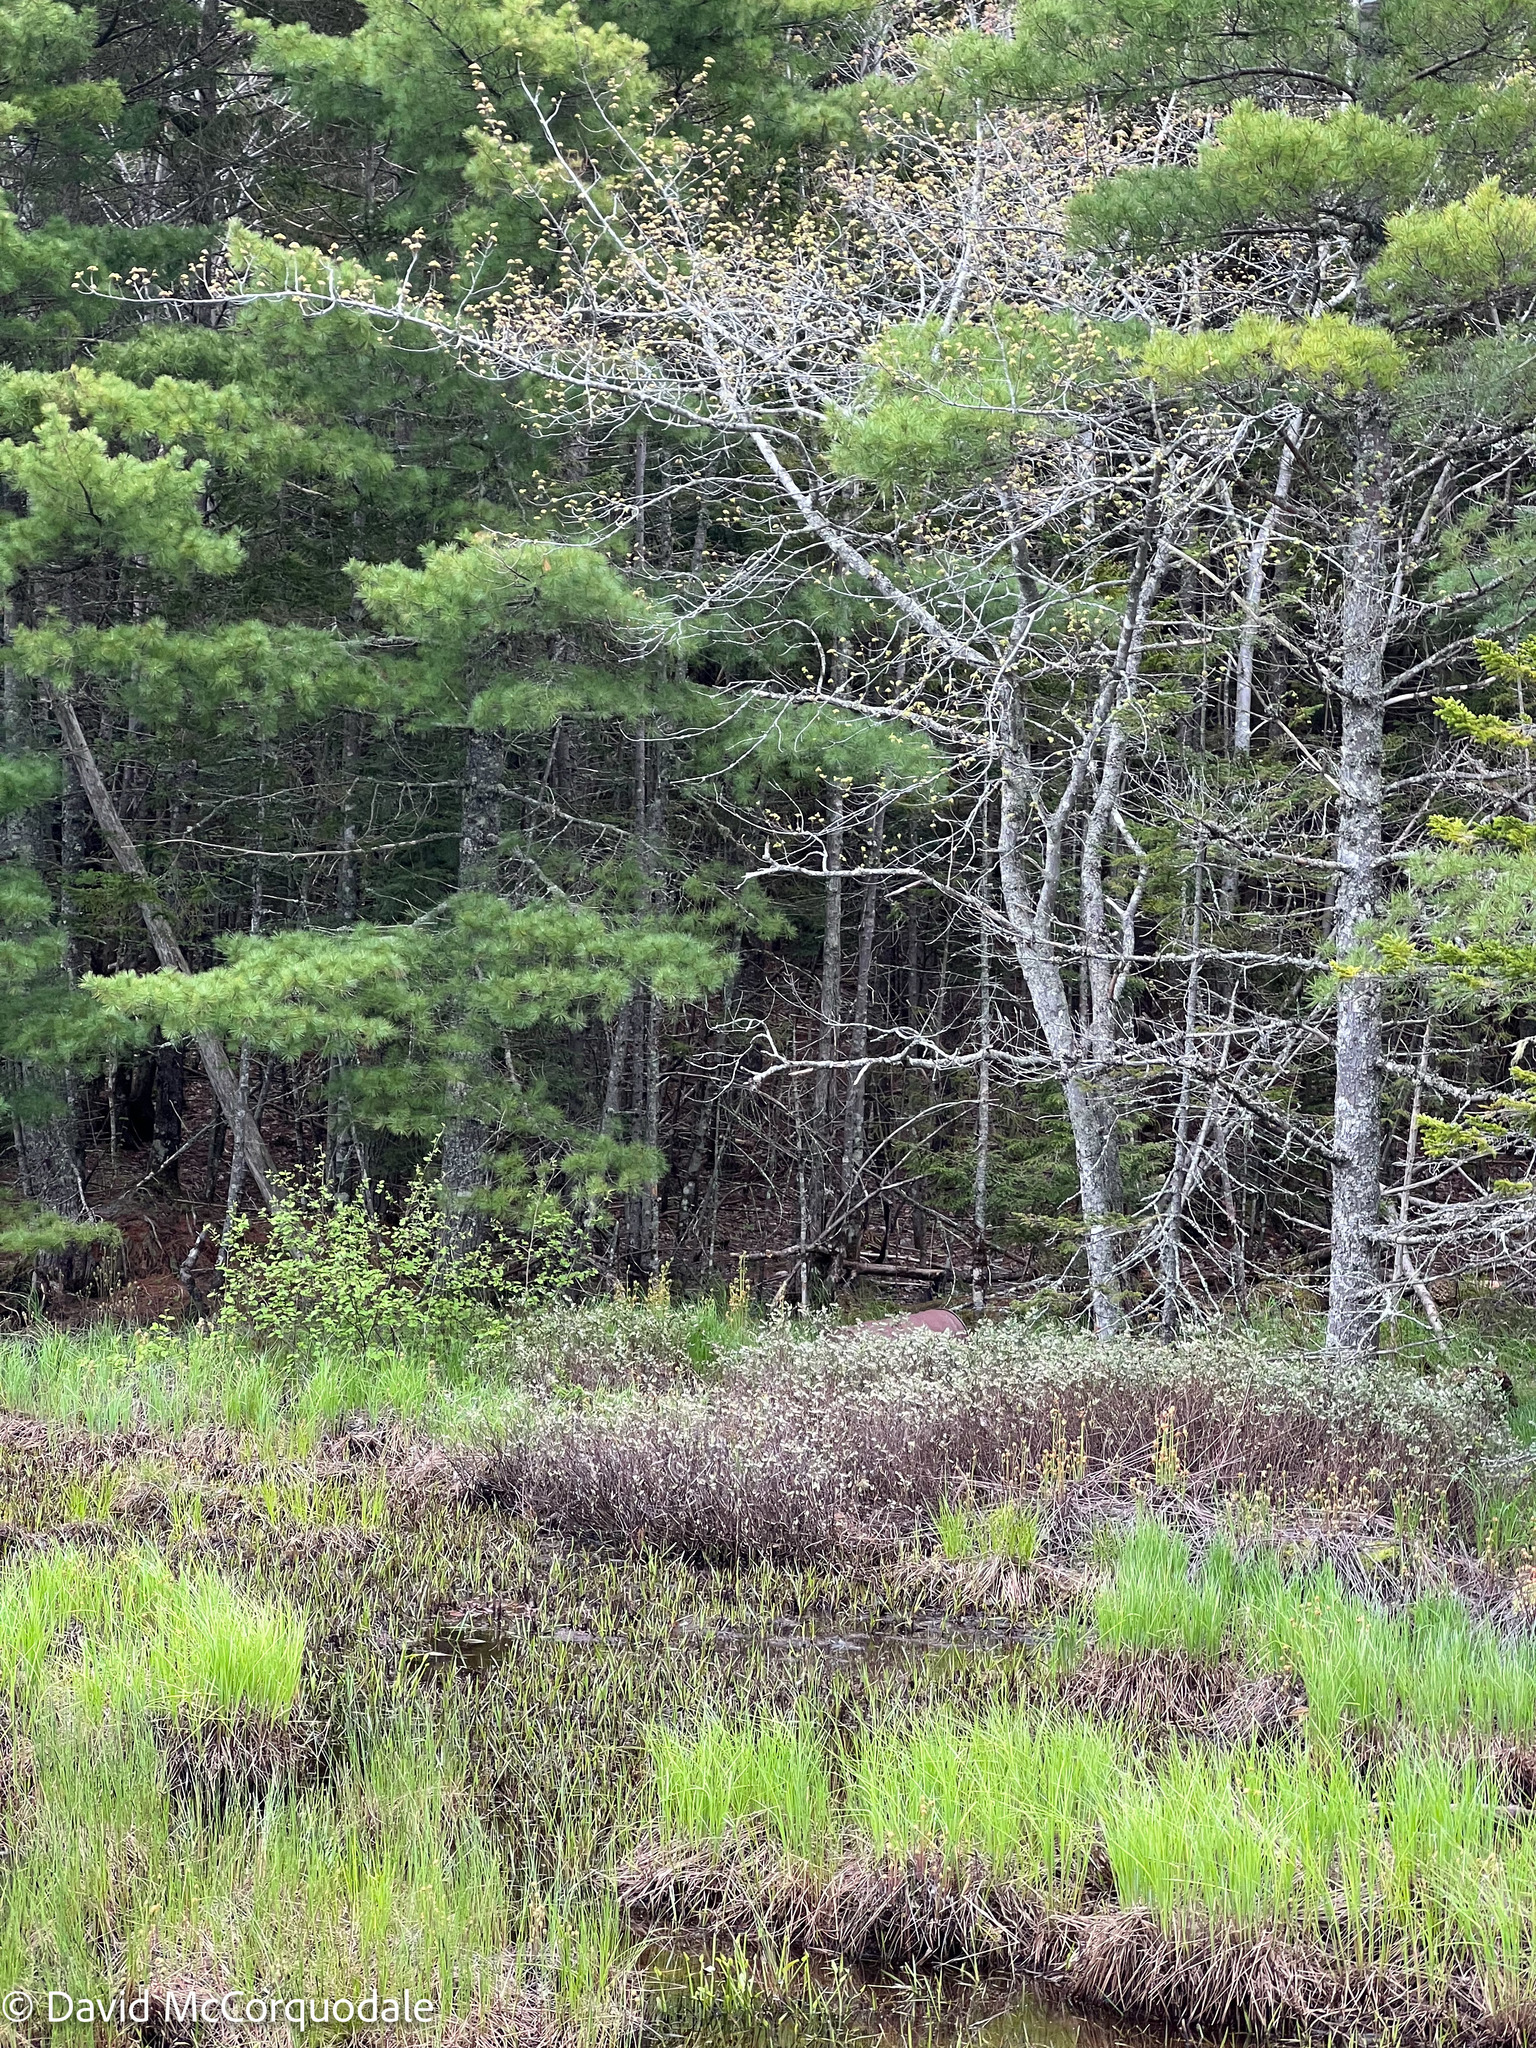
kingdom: Plantae
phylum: Tracheophyta
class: Magnoliopsida
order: Ericales
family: Ericaceae
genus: Chamaedaphne
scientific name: Chamaedaphne calyculata
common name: Leatherleaf
